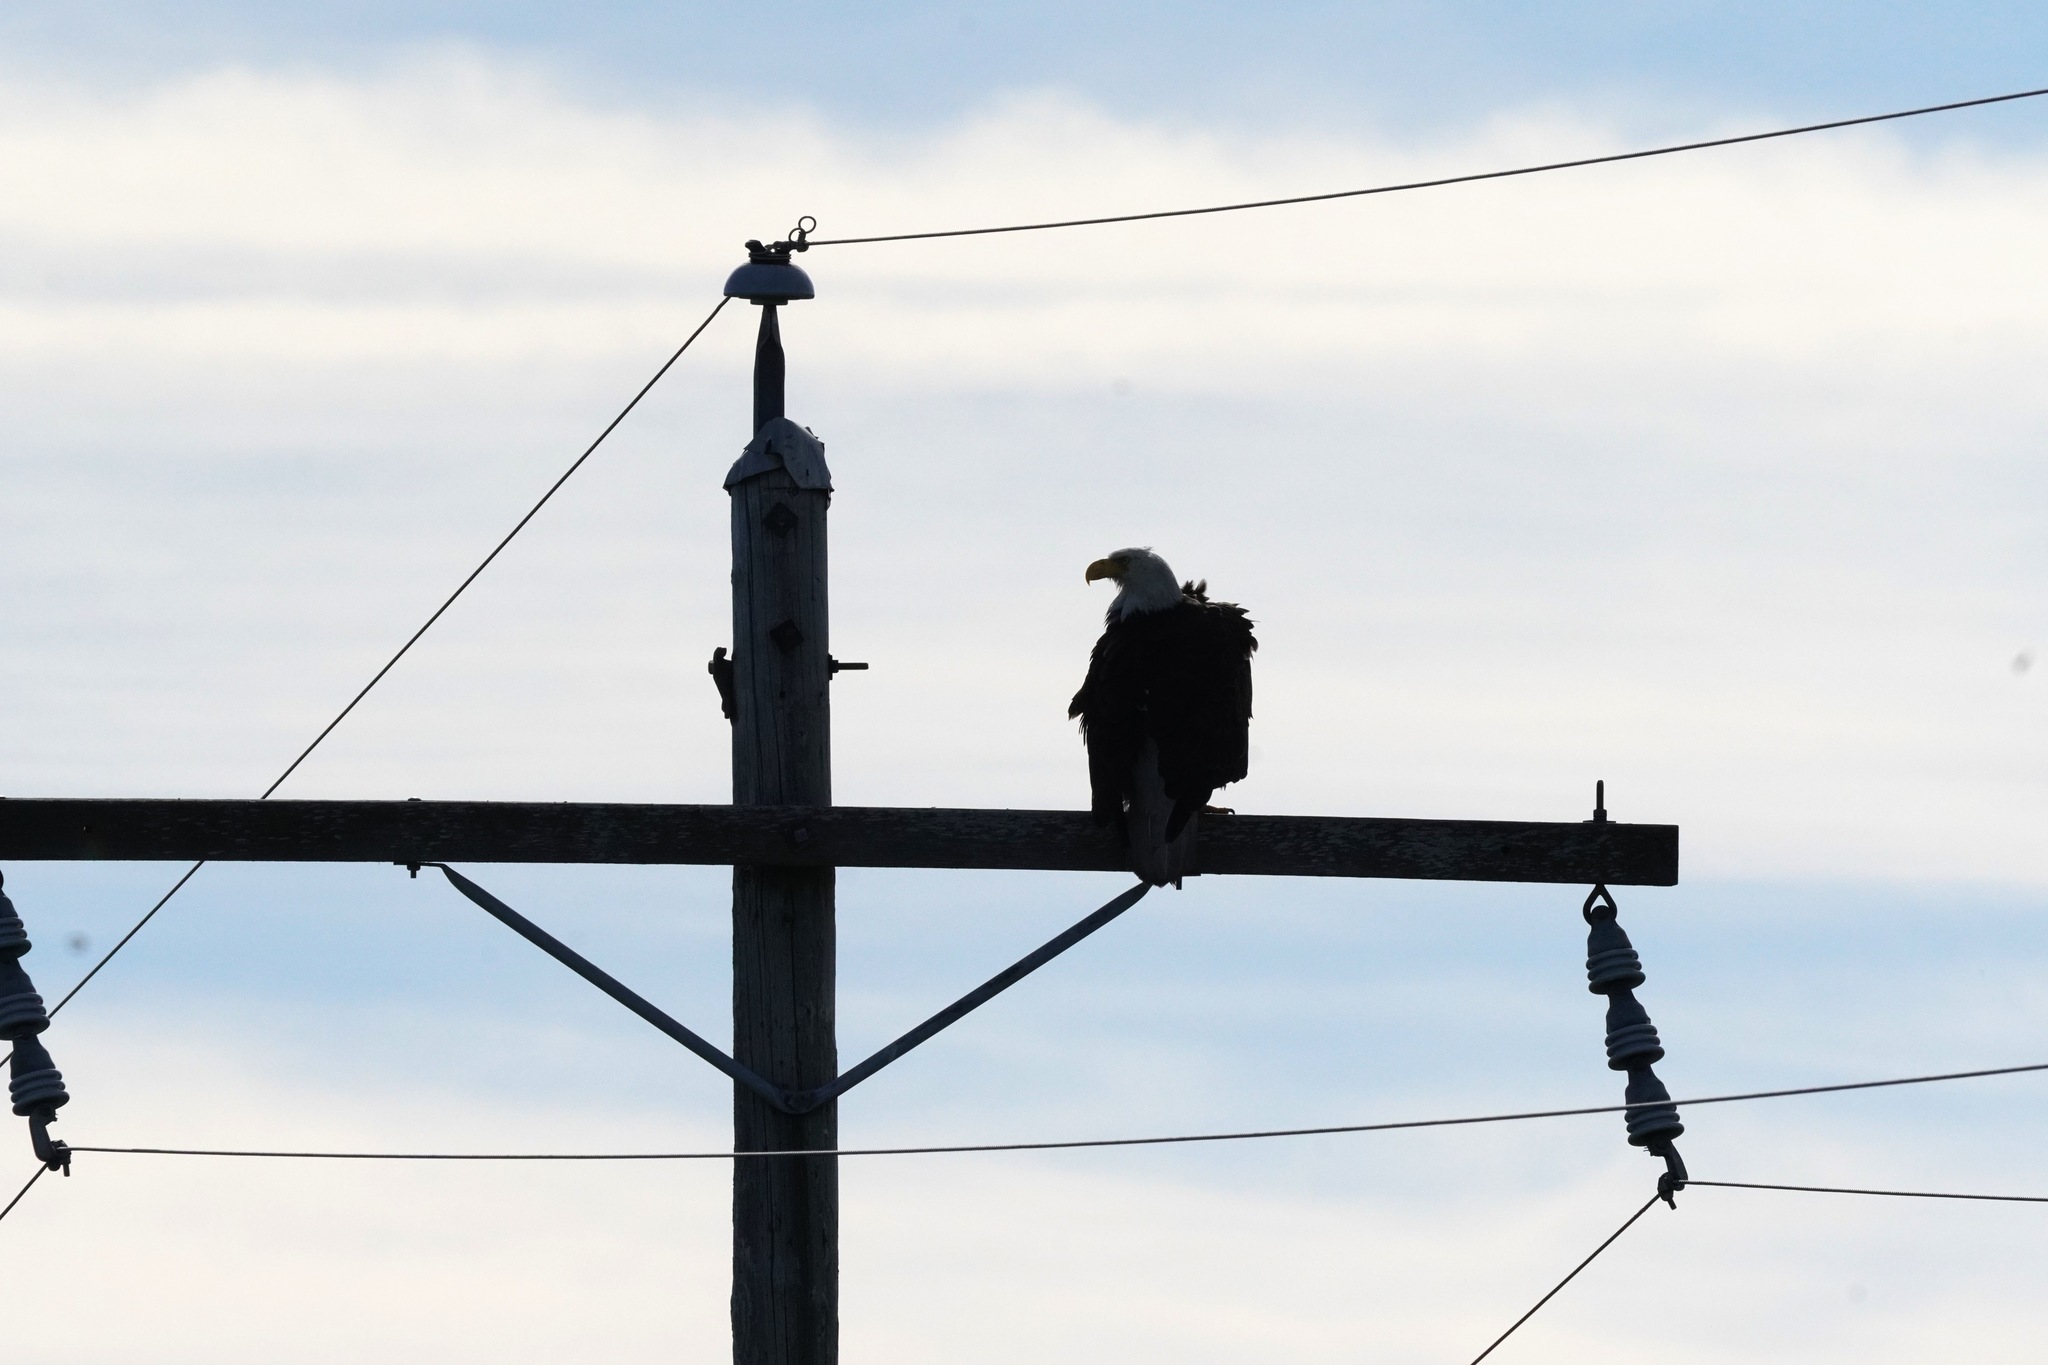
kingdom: Animalia
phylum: Chordata
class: Aves
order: Accipitriformes
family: Accipitridae
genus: Haliaeetus
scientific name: Haliaeetus leucocephalus
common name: Bald eagle
